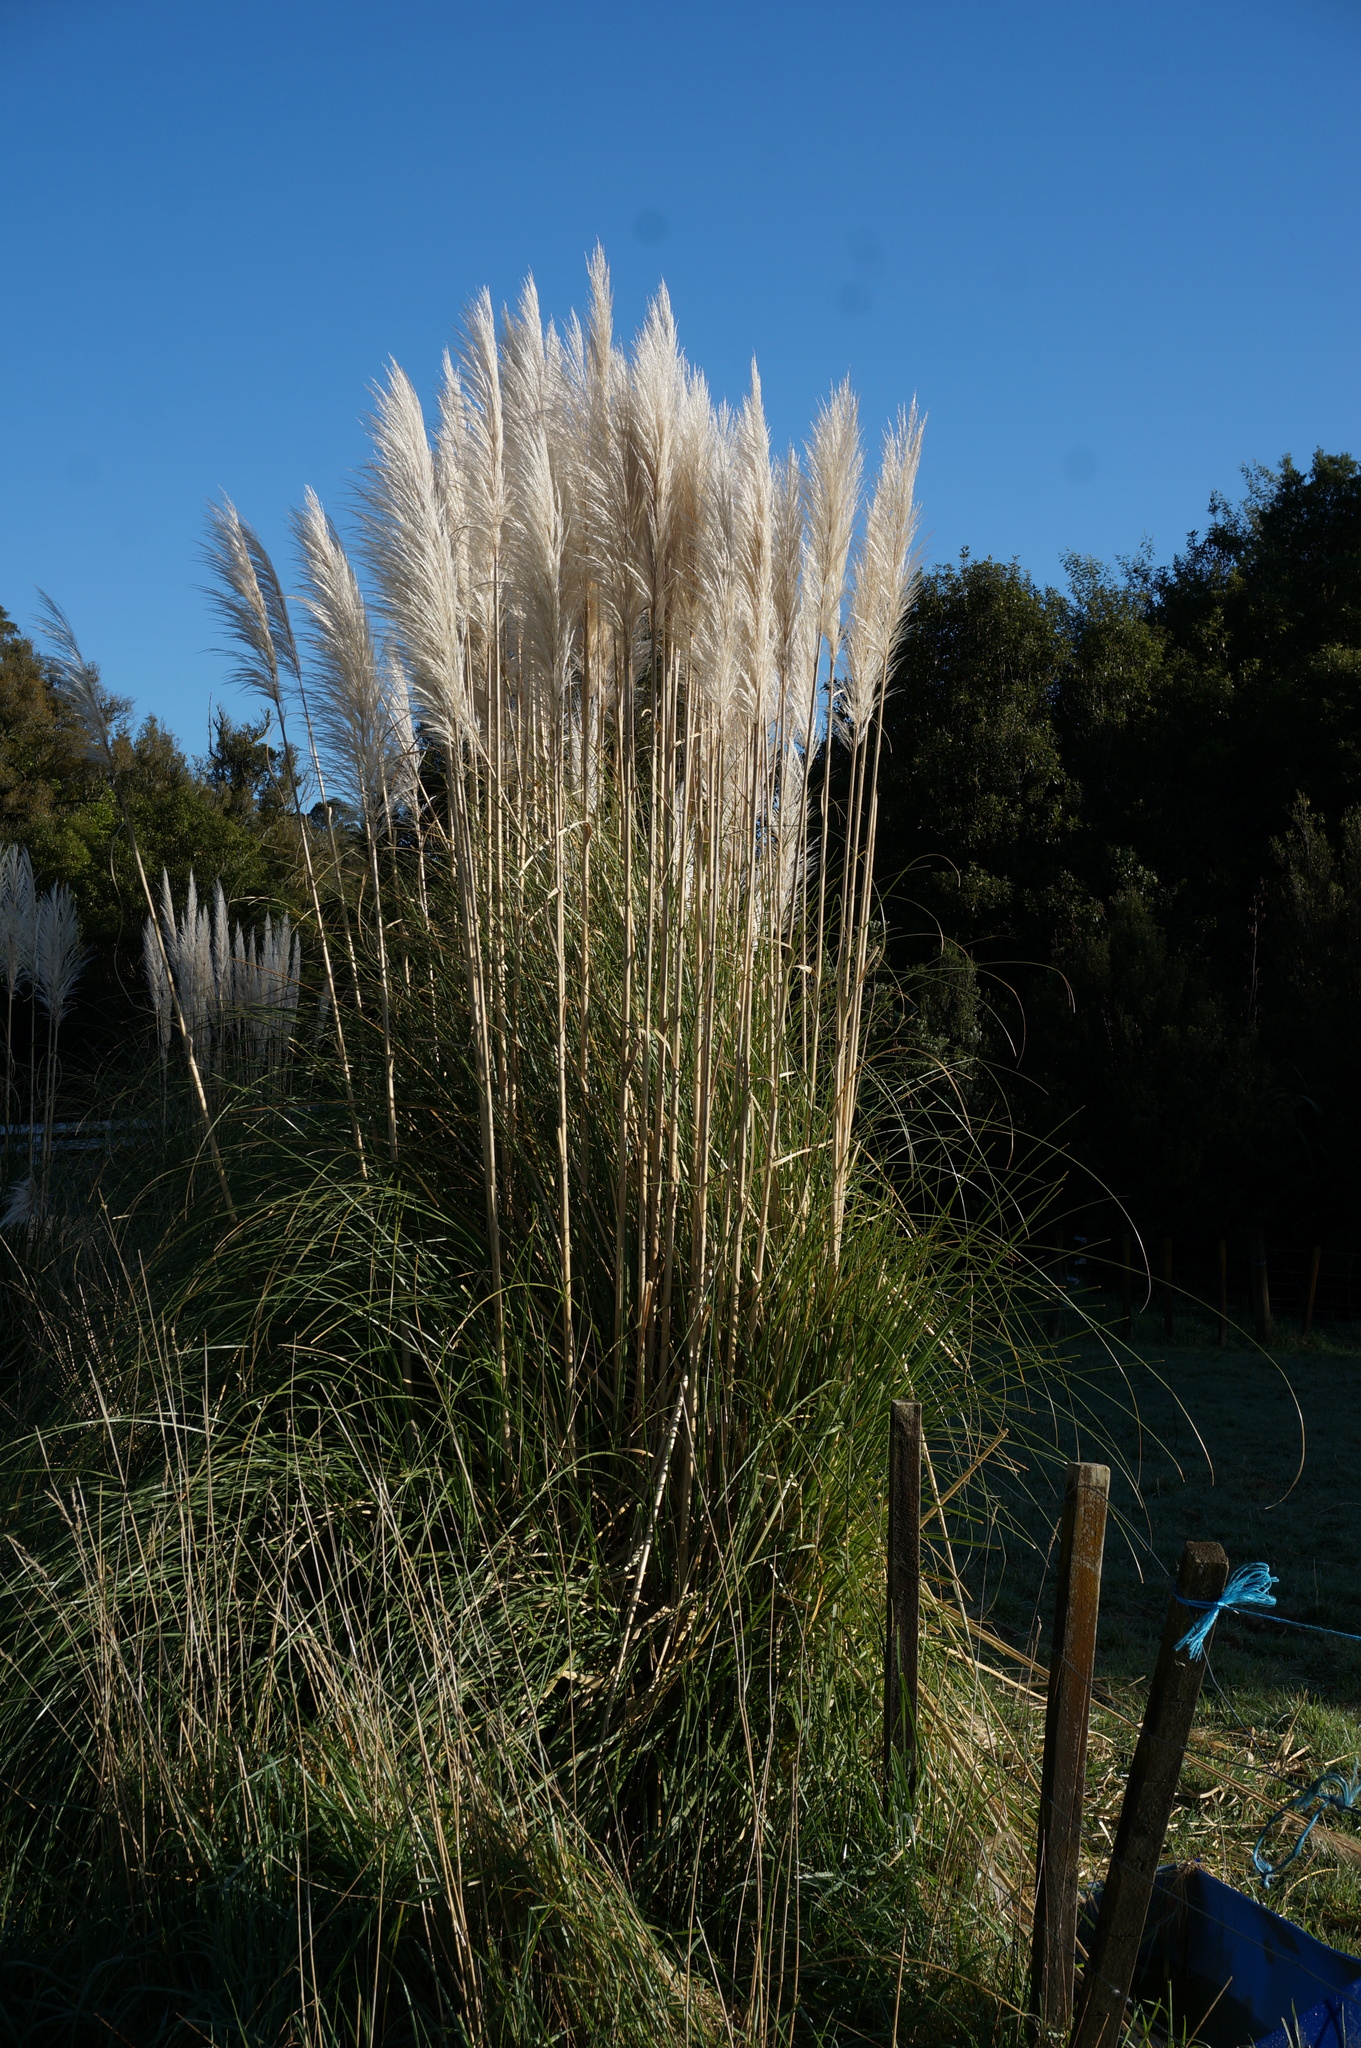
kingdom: Plantae
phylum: Tracheophyta
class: Liliopsida
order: Poales
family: Poaceae
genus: Cortaderia
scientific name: Cortaderia selloana
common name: Uruguayan pampas grass
